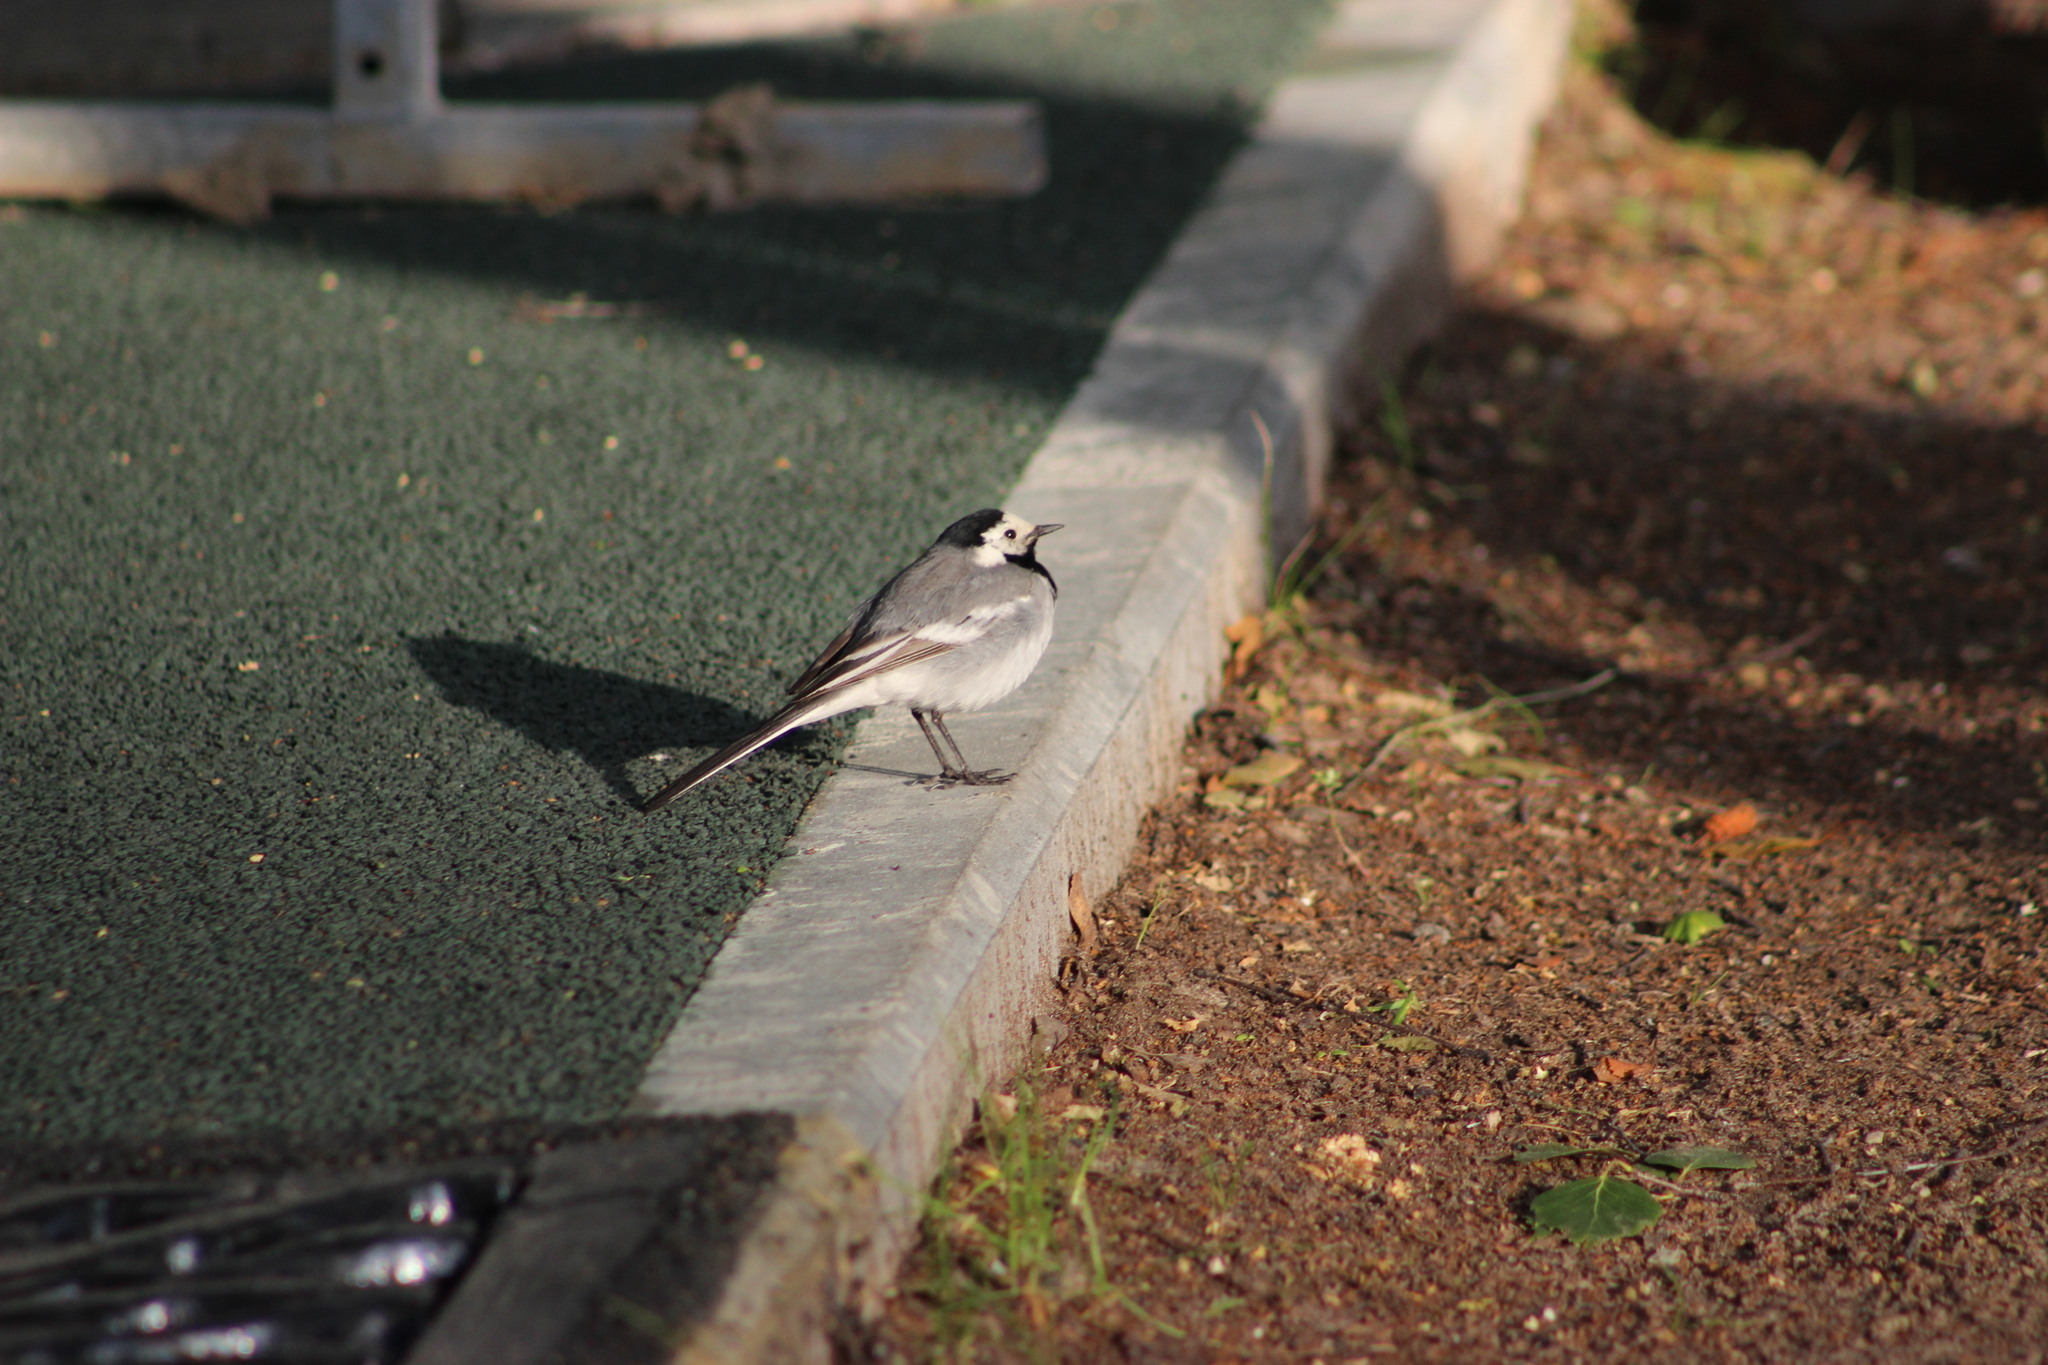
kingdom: Animalia
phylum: Chordata
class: Aves
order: Passeriformes
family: Motacillidae
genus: Motacilla
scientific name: Motacilla alba
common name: White wagtail
